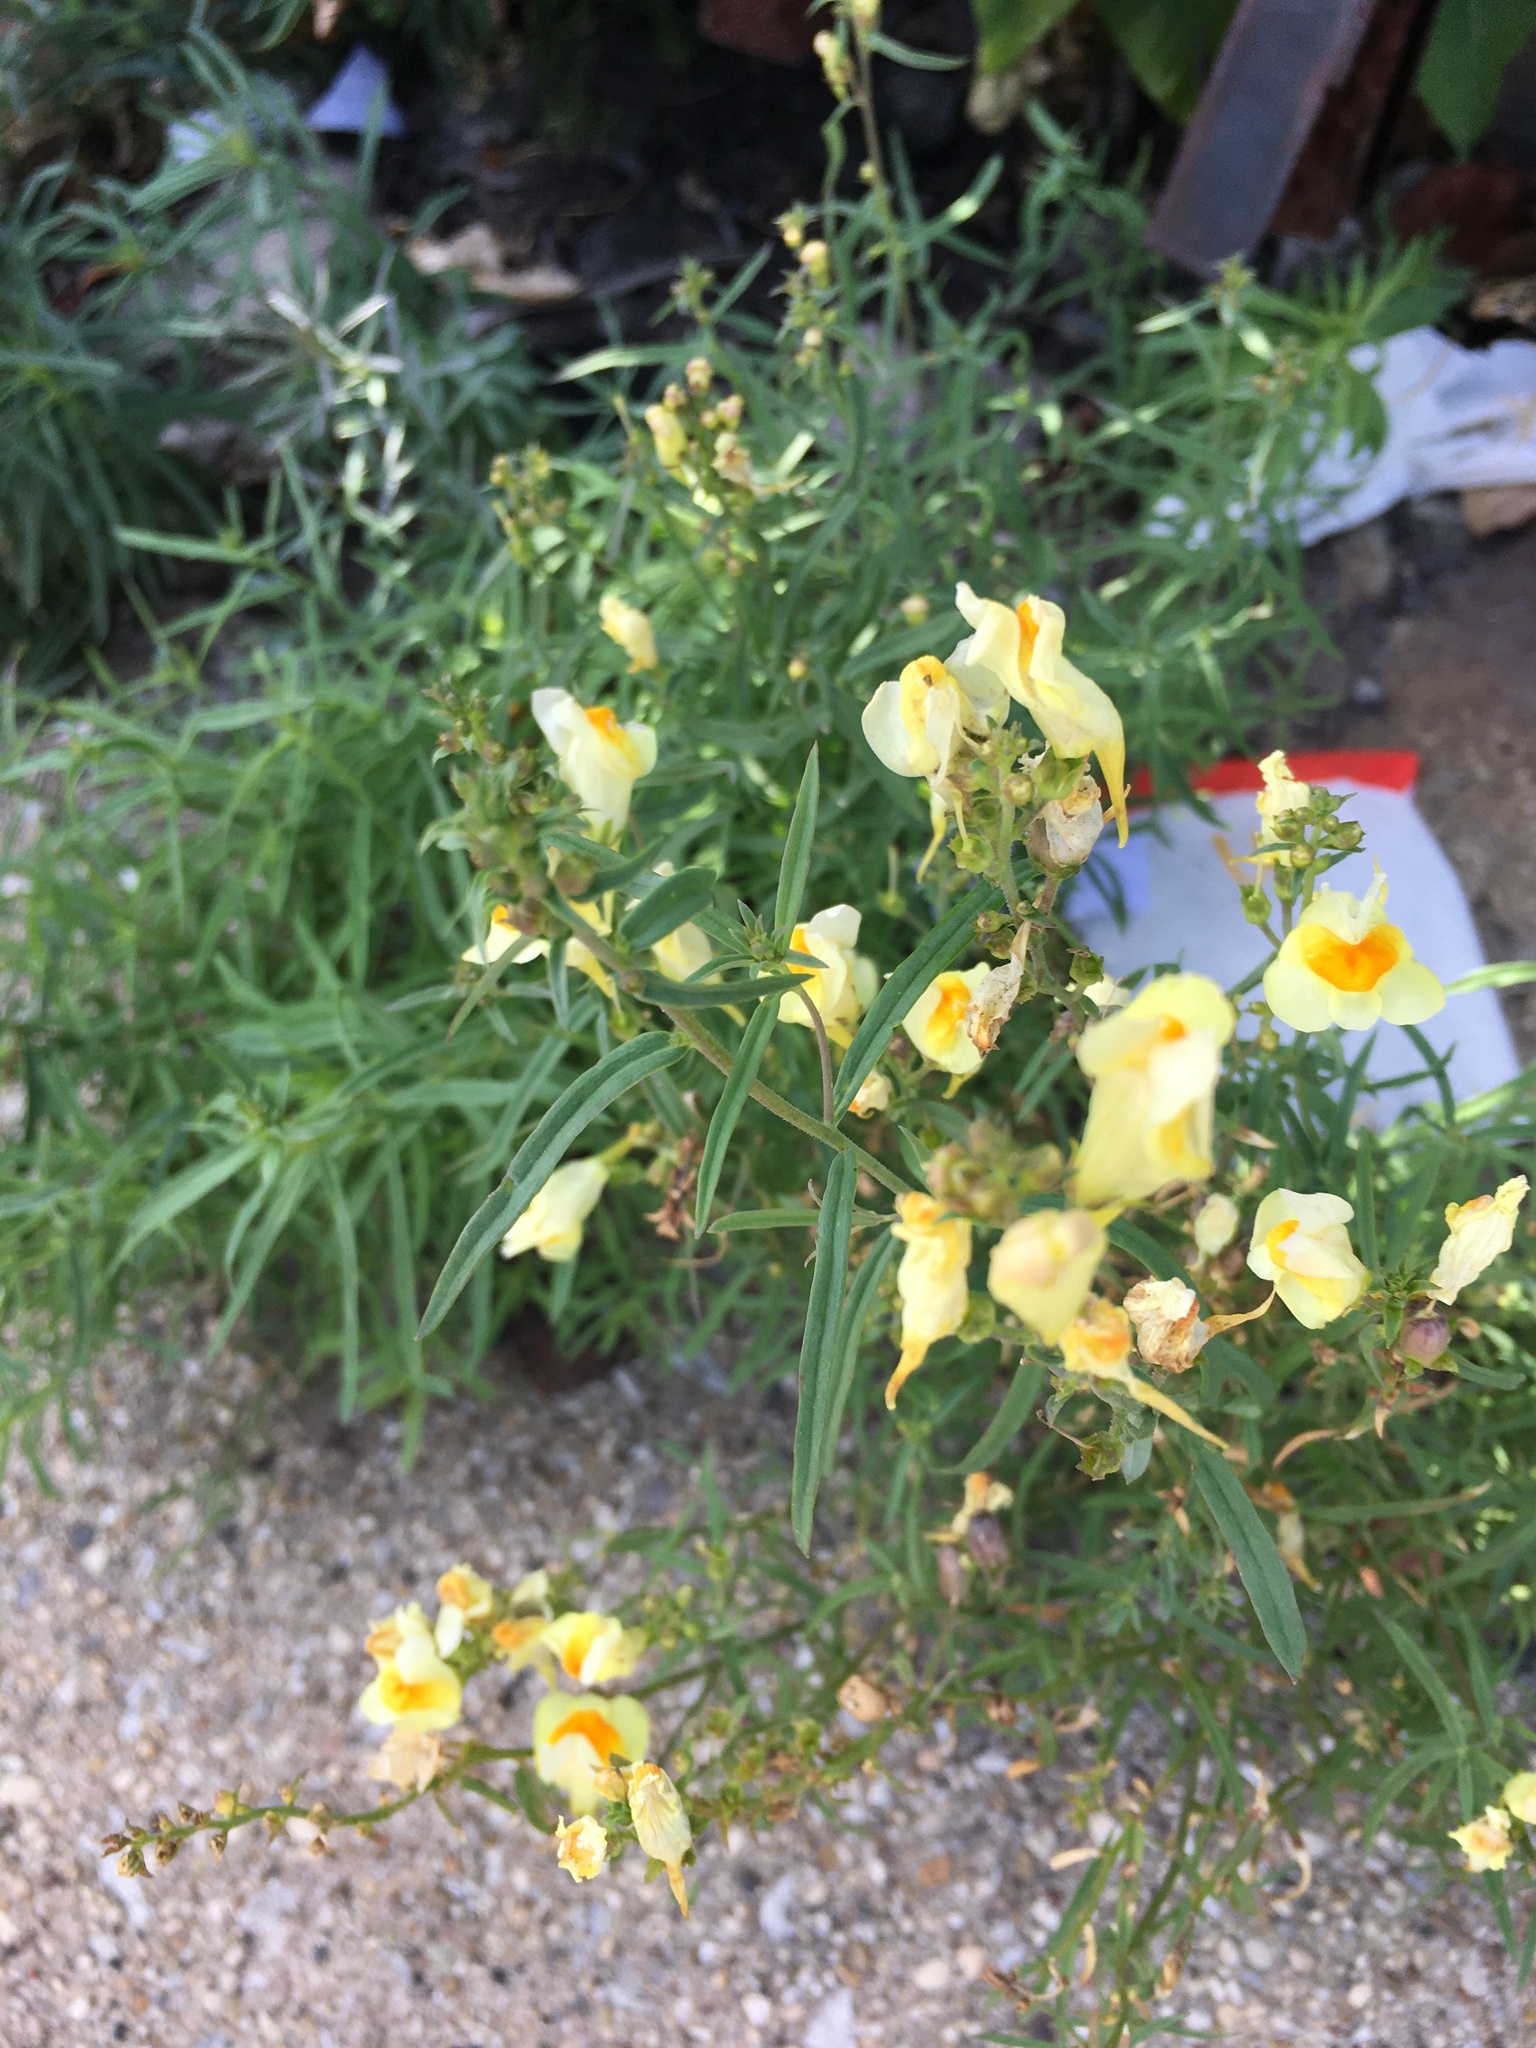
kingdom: Plantae
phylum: Tracheophyta
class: Magnoliopsida
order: Lamiales
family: Plantaginaceae
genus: Linaria
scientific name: Linaria vulgaris
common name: Butter and eggs
